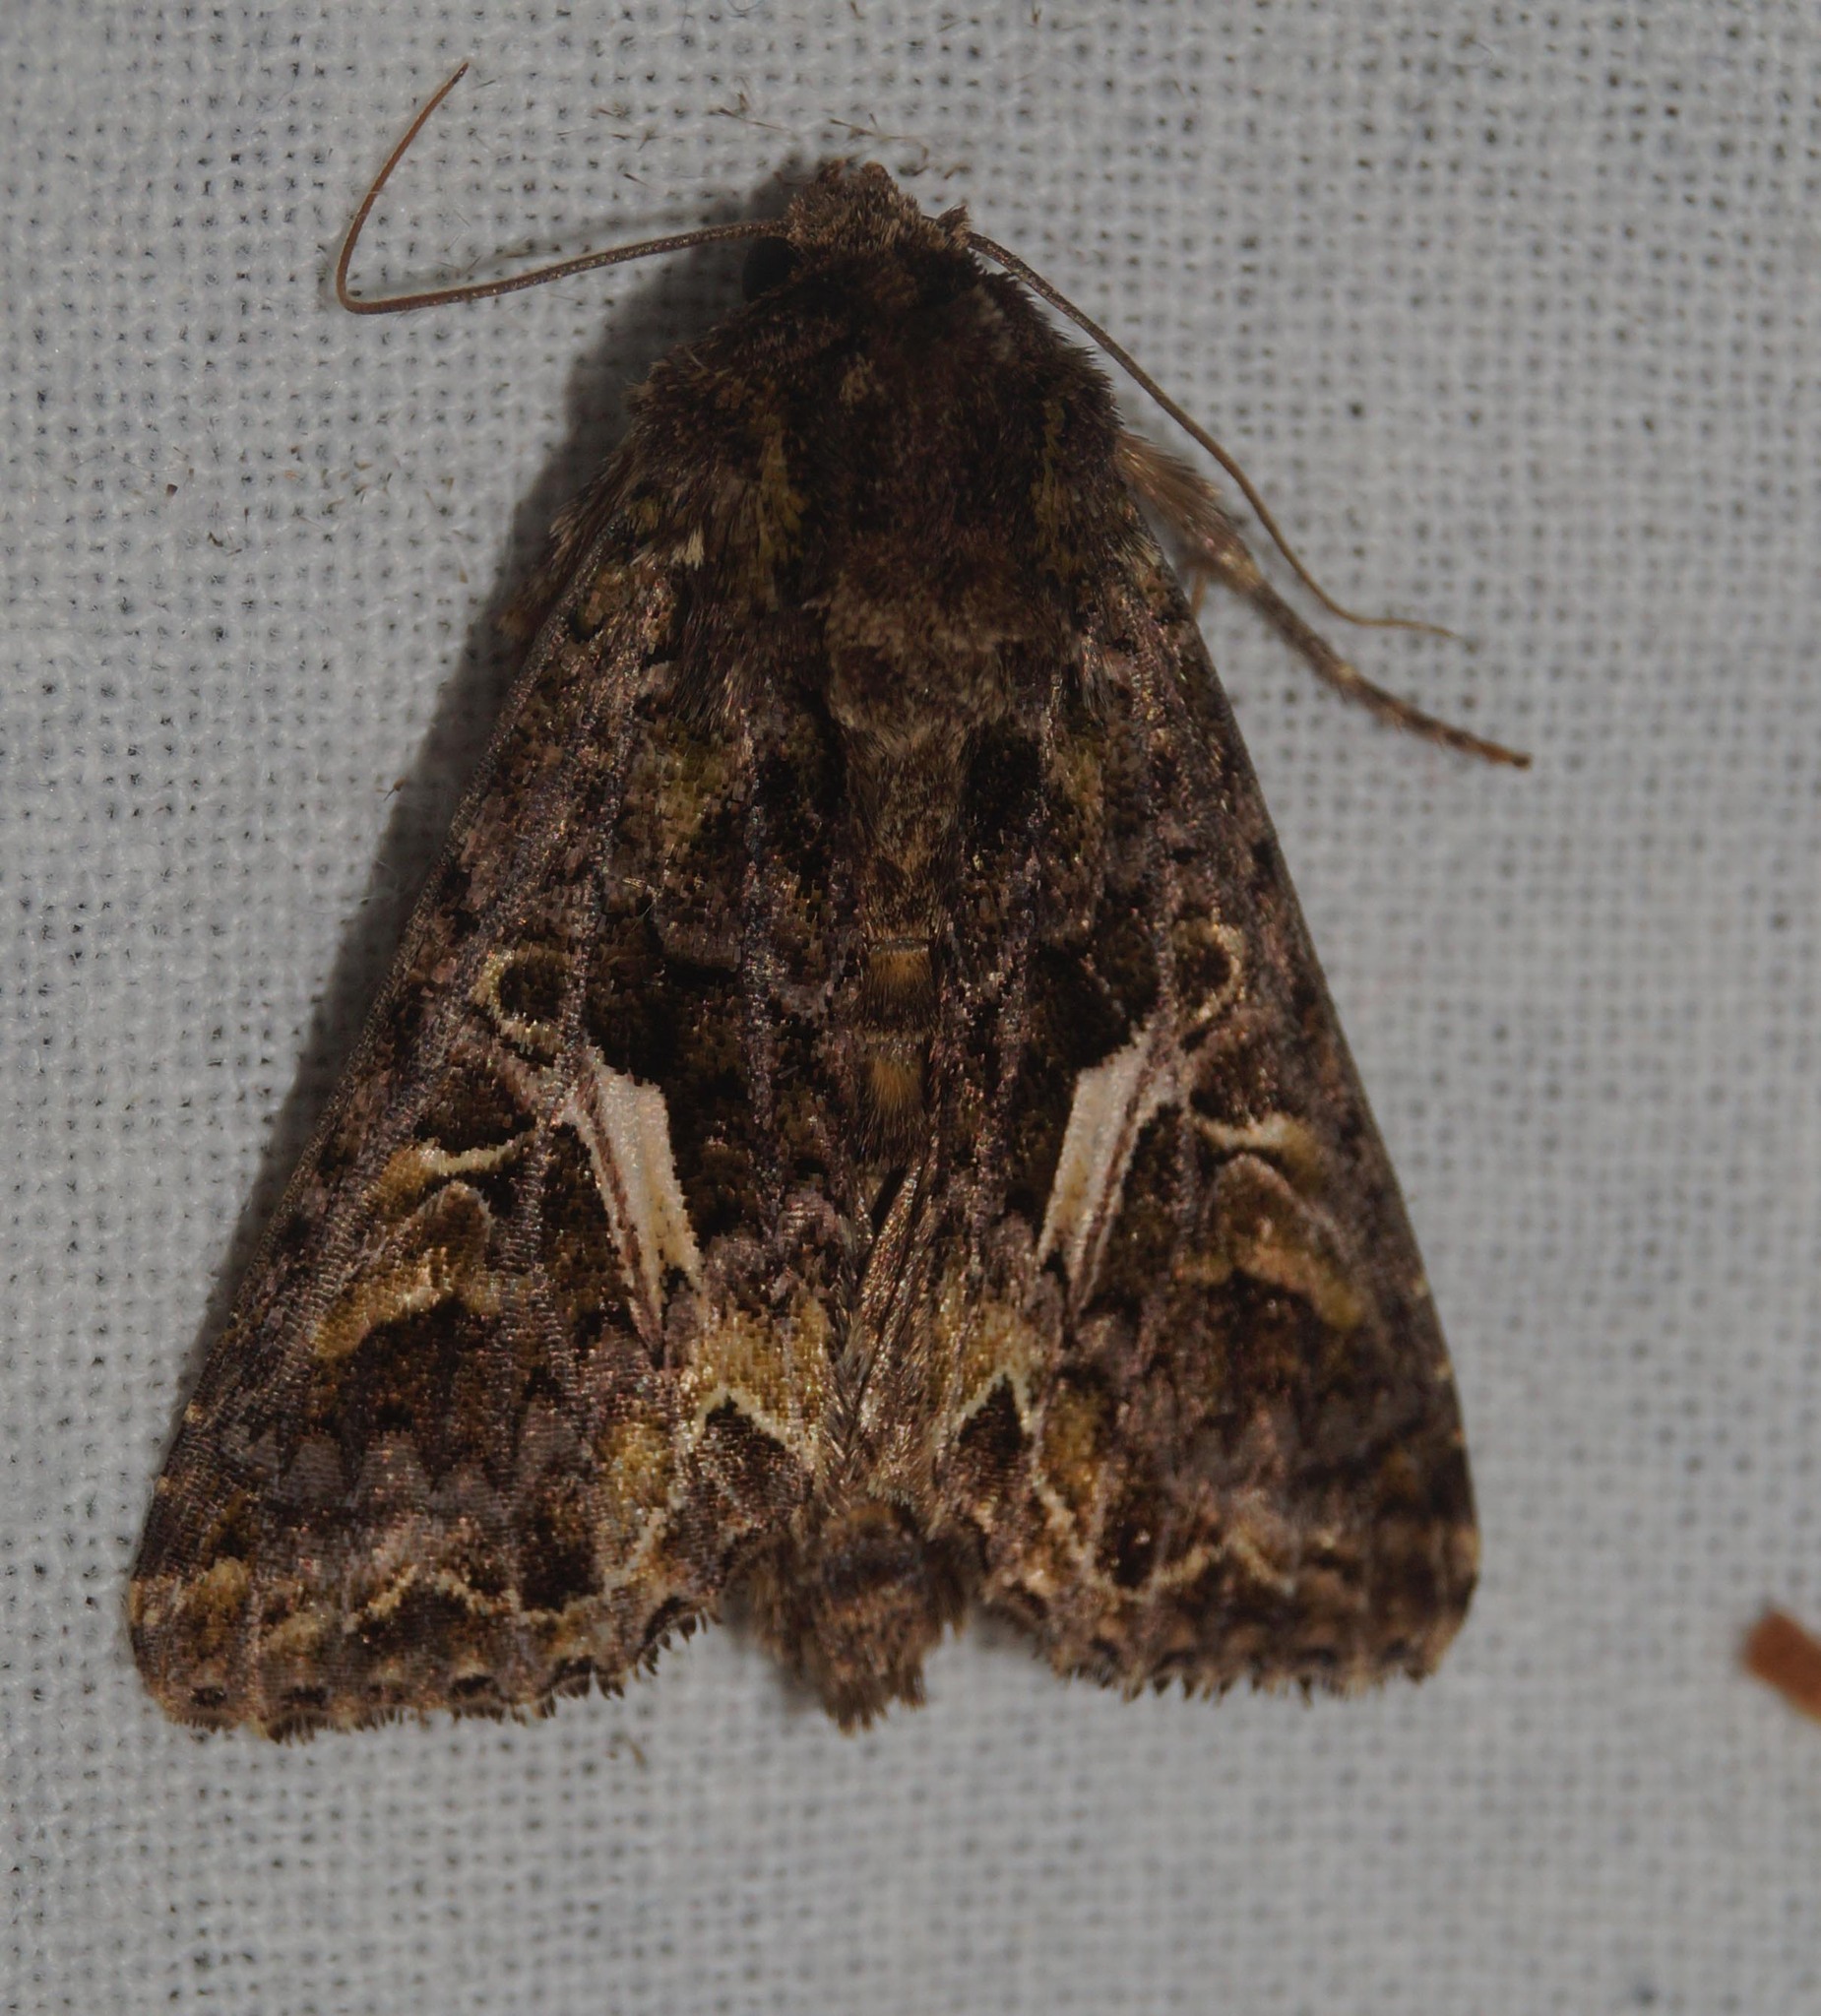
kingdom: Animalia
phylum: Arthropoda
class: Insecta
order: Lepidoptera
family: Noctuidae
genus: Trachea
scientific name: Trachea atriplicis
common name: Orache moth
